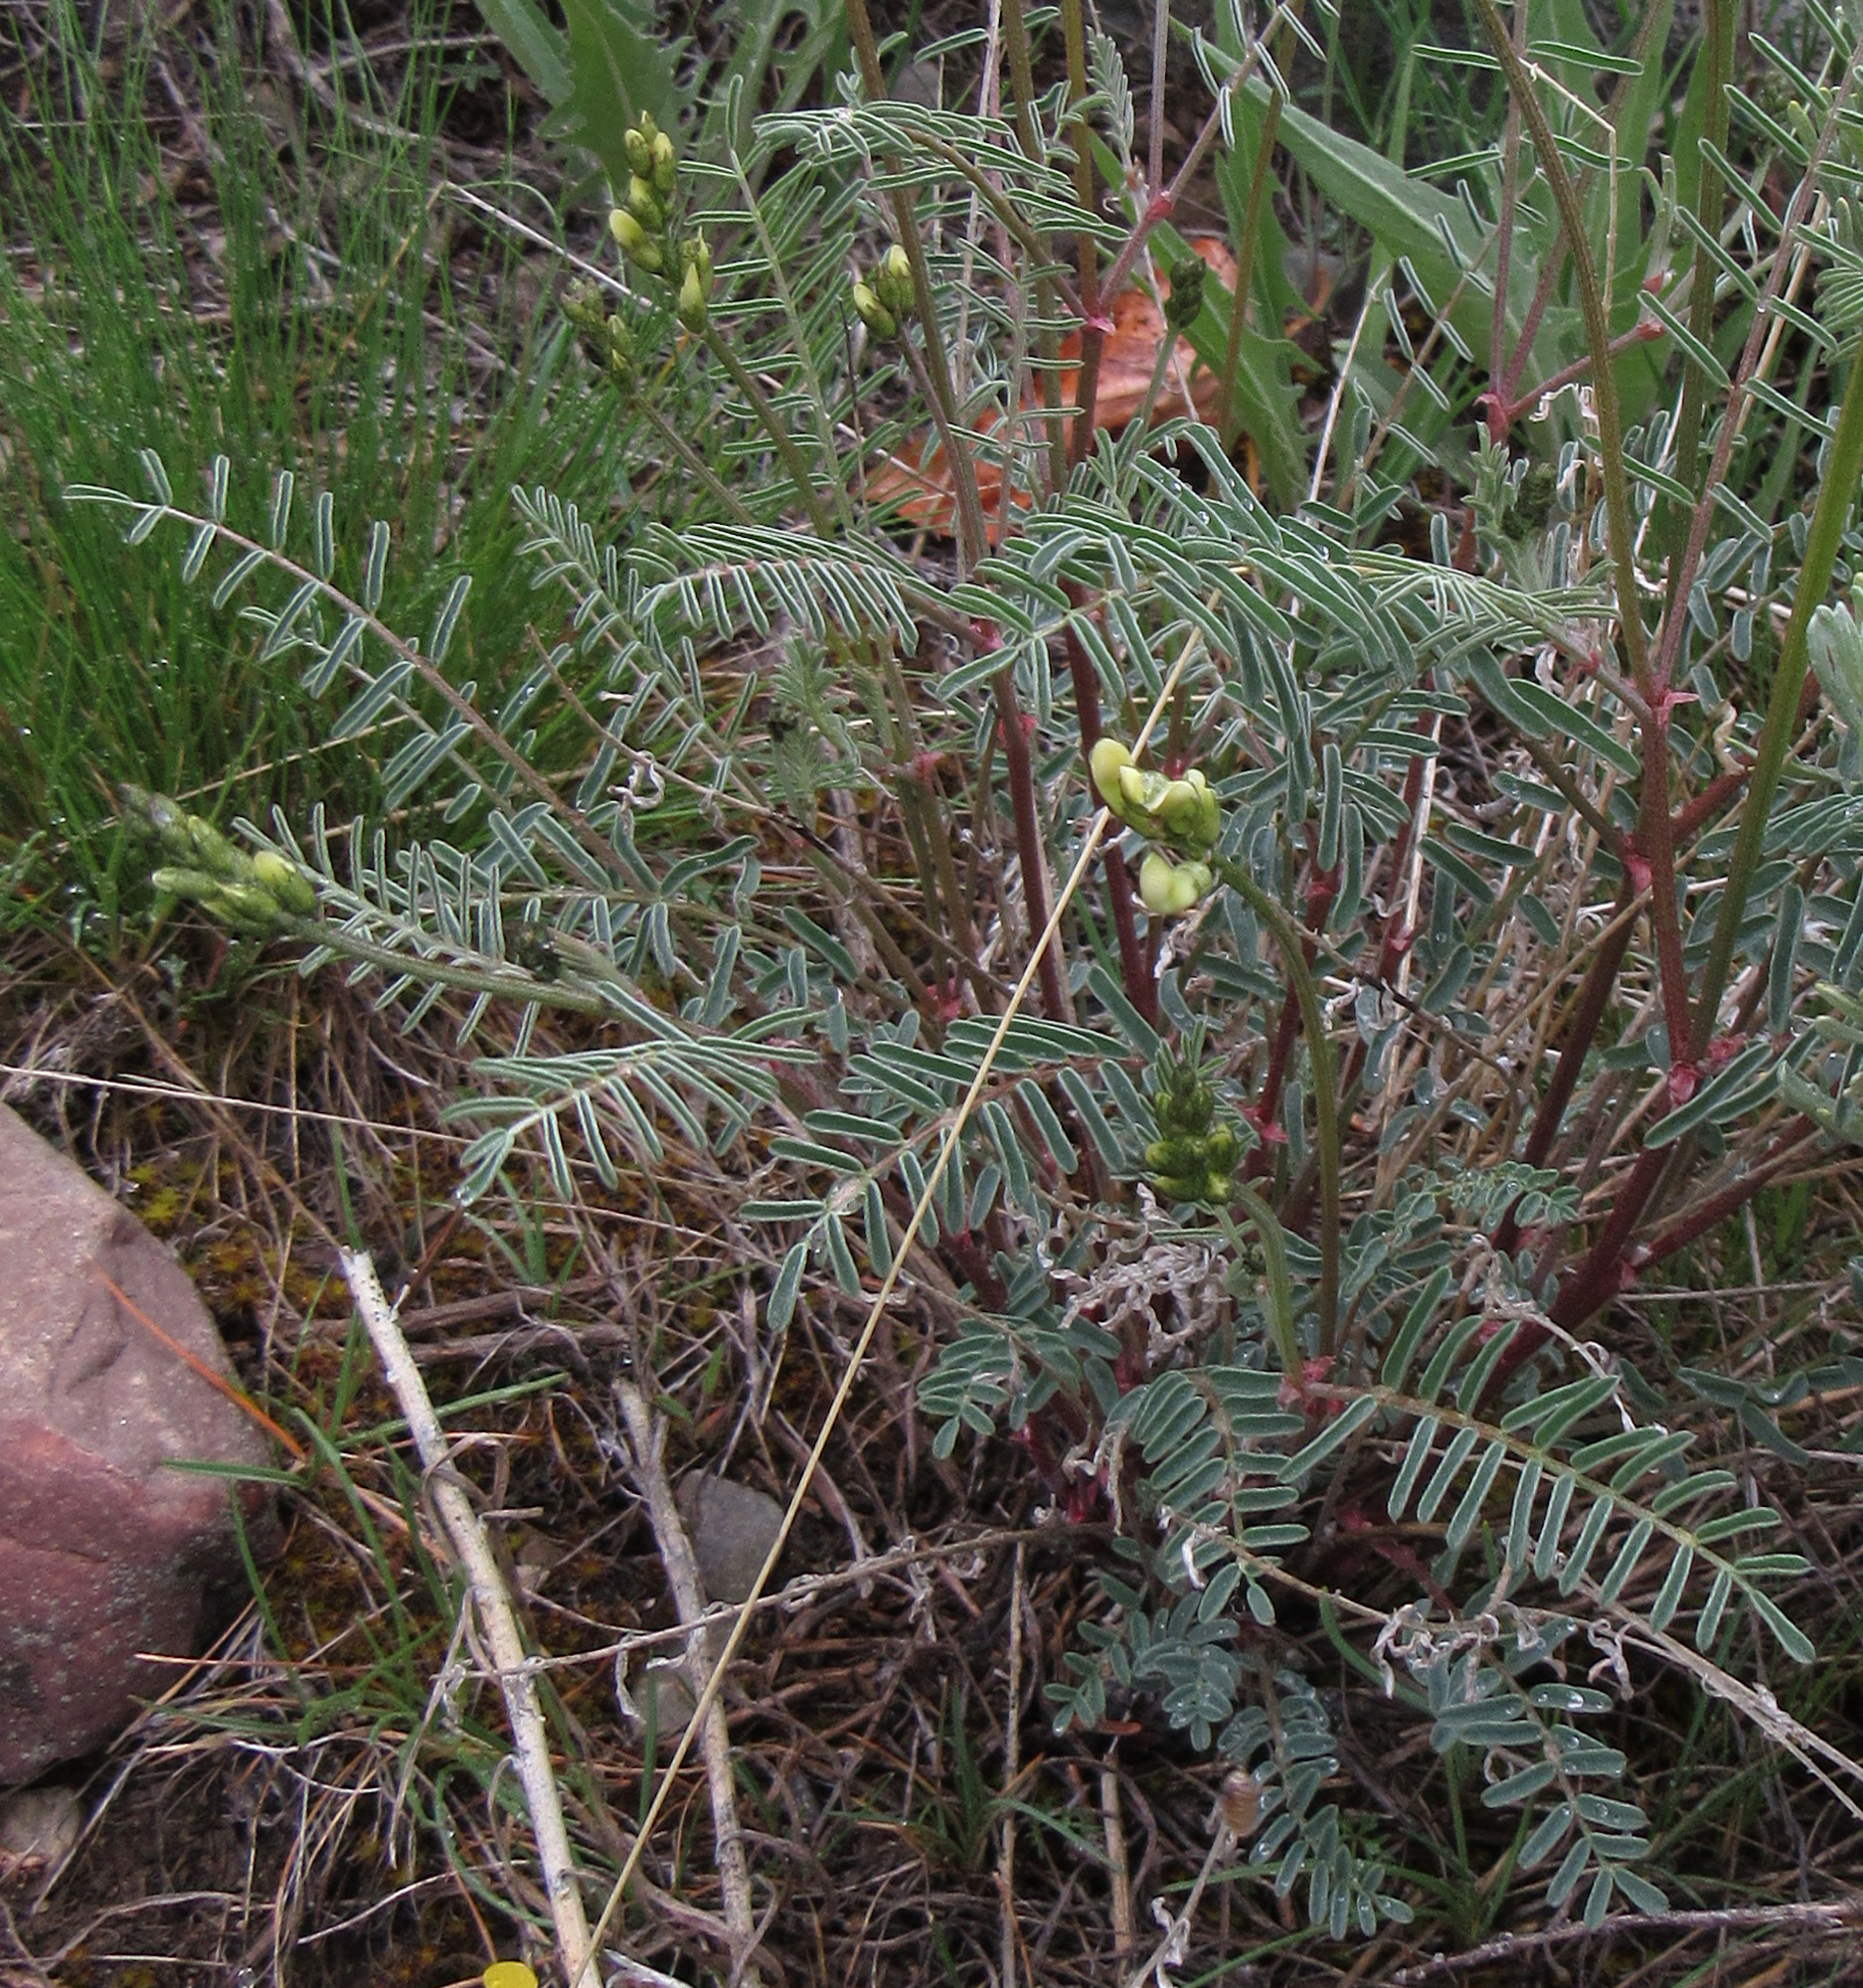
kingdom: Plantae
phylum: Tracheophyta
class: Magnoliopsida
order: Fabales
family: Fabaceae
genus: Astragalus
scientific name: Astragalus atropubescens
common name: Kelsey milk-vetch
